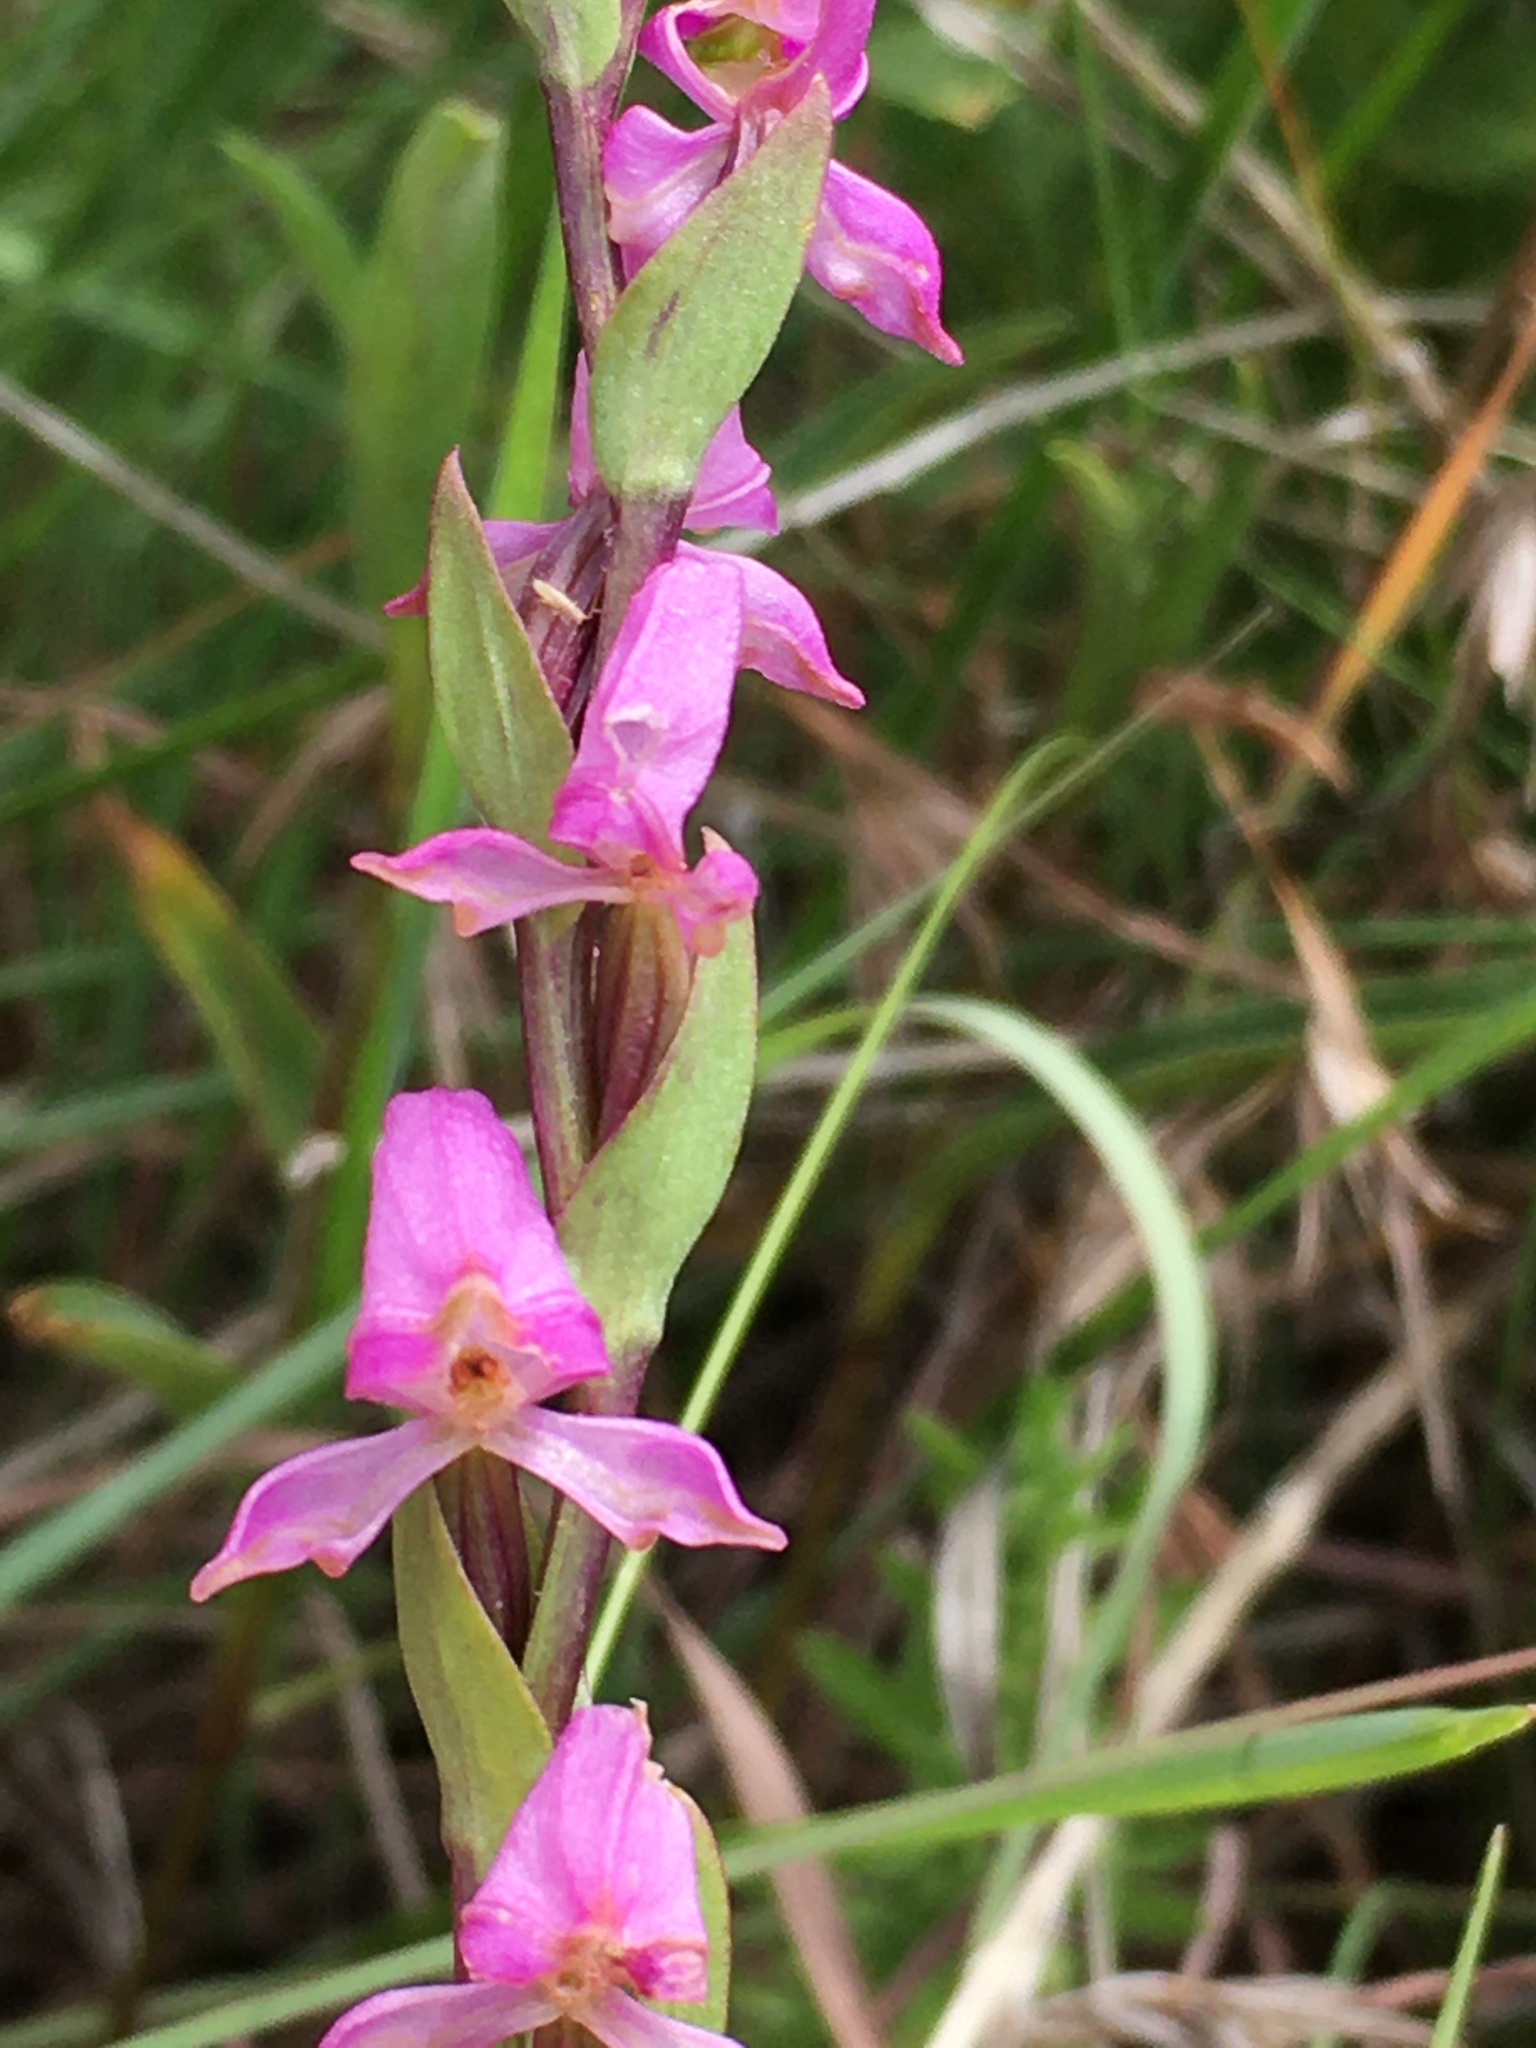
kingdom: Plantae
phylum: Tracheophyta
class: Liliopsida
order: Asparagales
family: Orchidaceae
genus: Disperis
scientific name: Disperis tysonii
